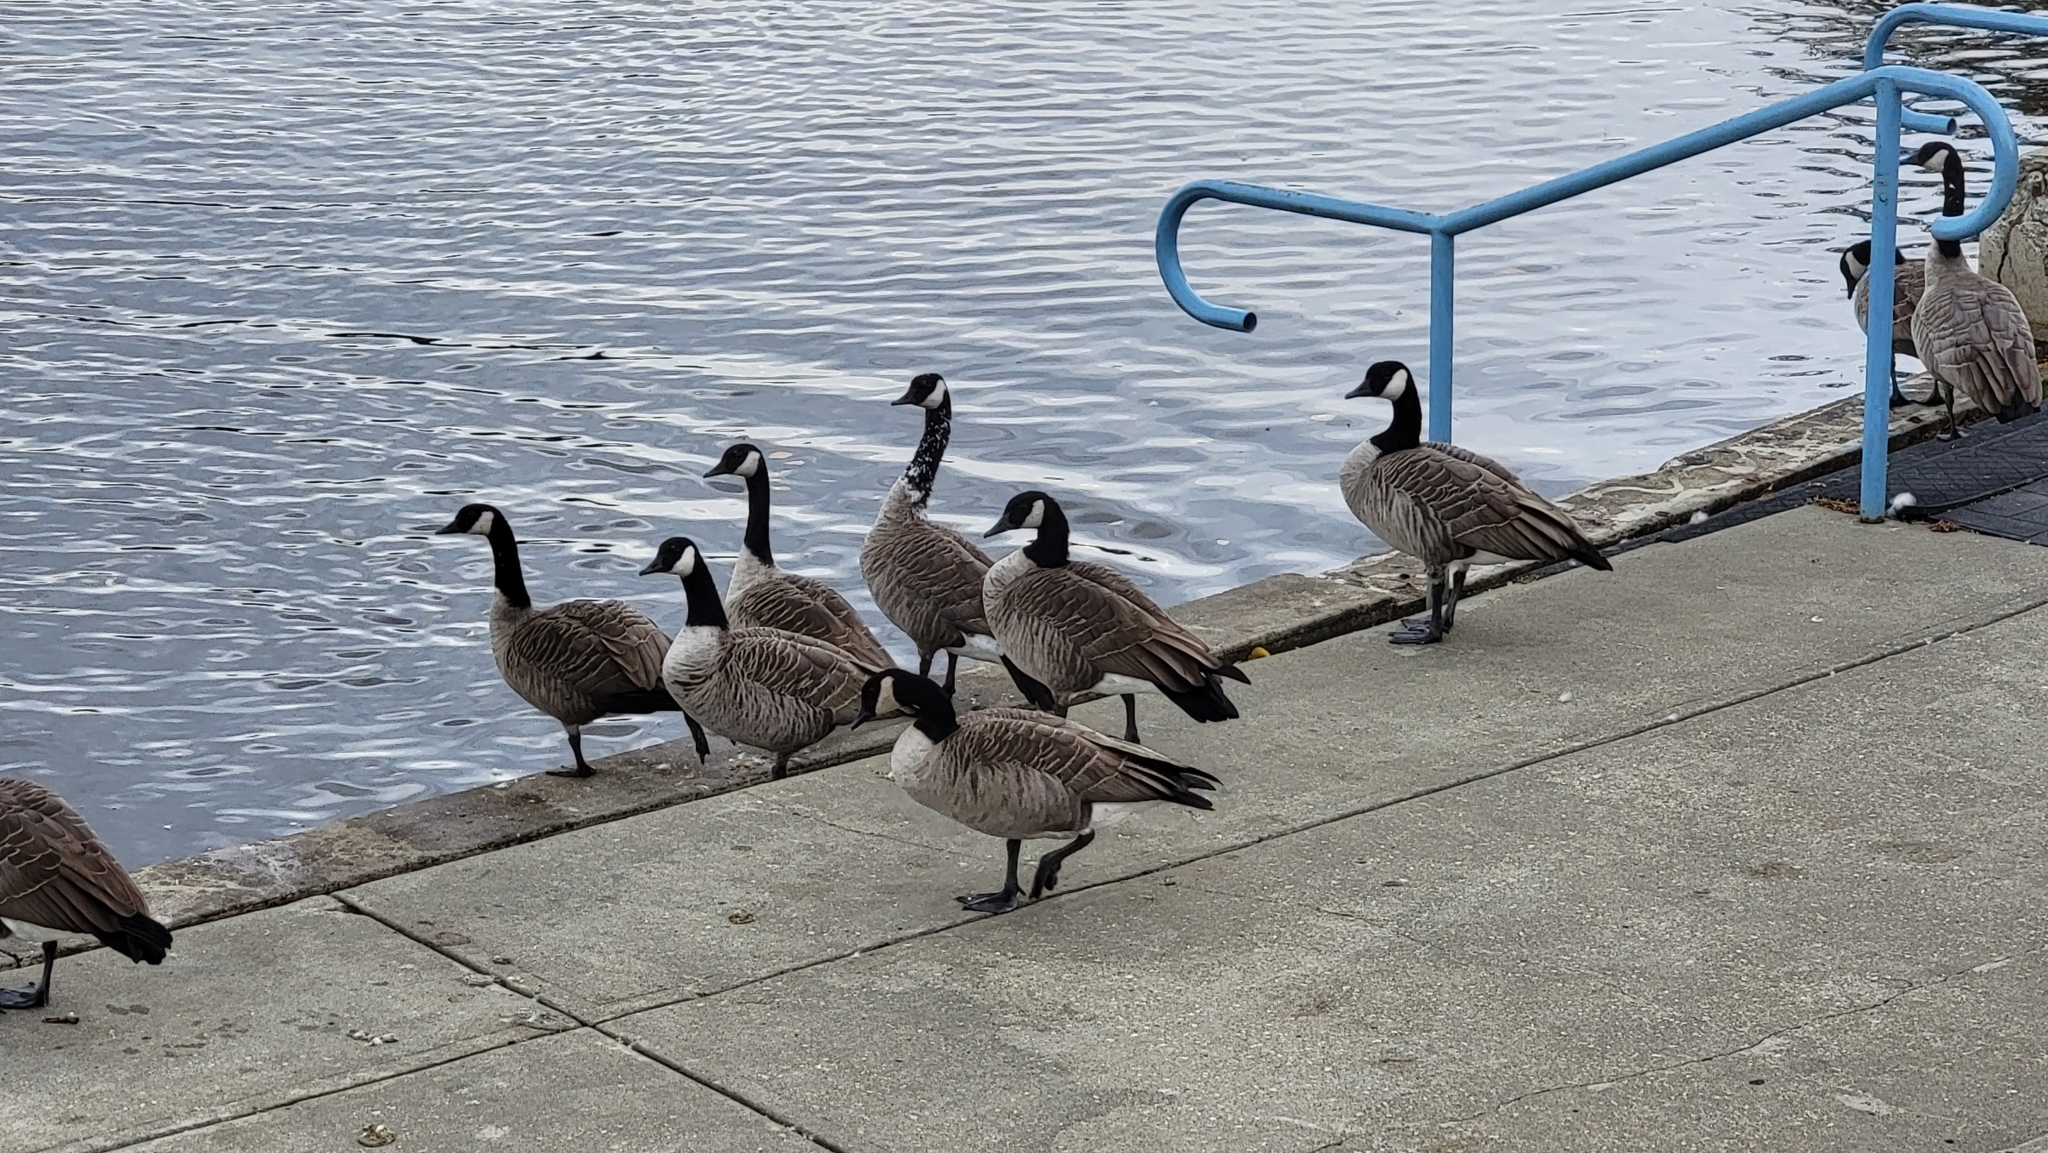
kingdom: Animalia
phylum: Chordata
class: Aves
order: Anseriformes
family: Anatidae
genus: Branta
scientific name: Branta canadensis
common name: Canada goose
